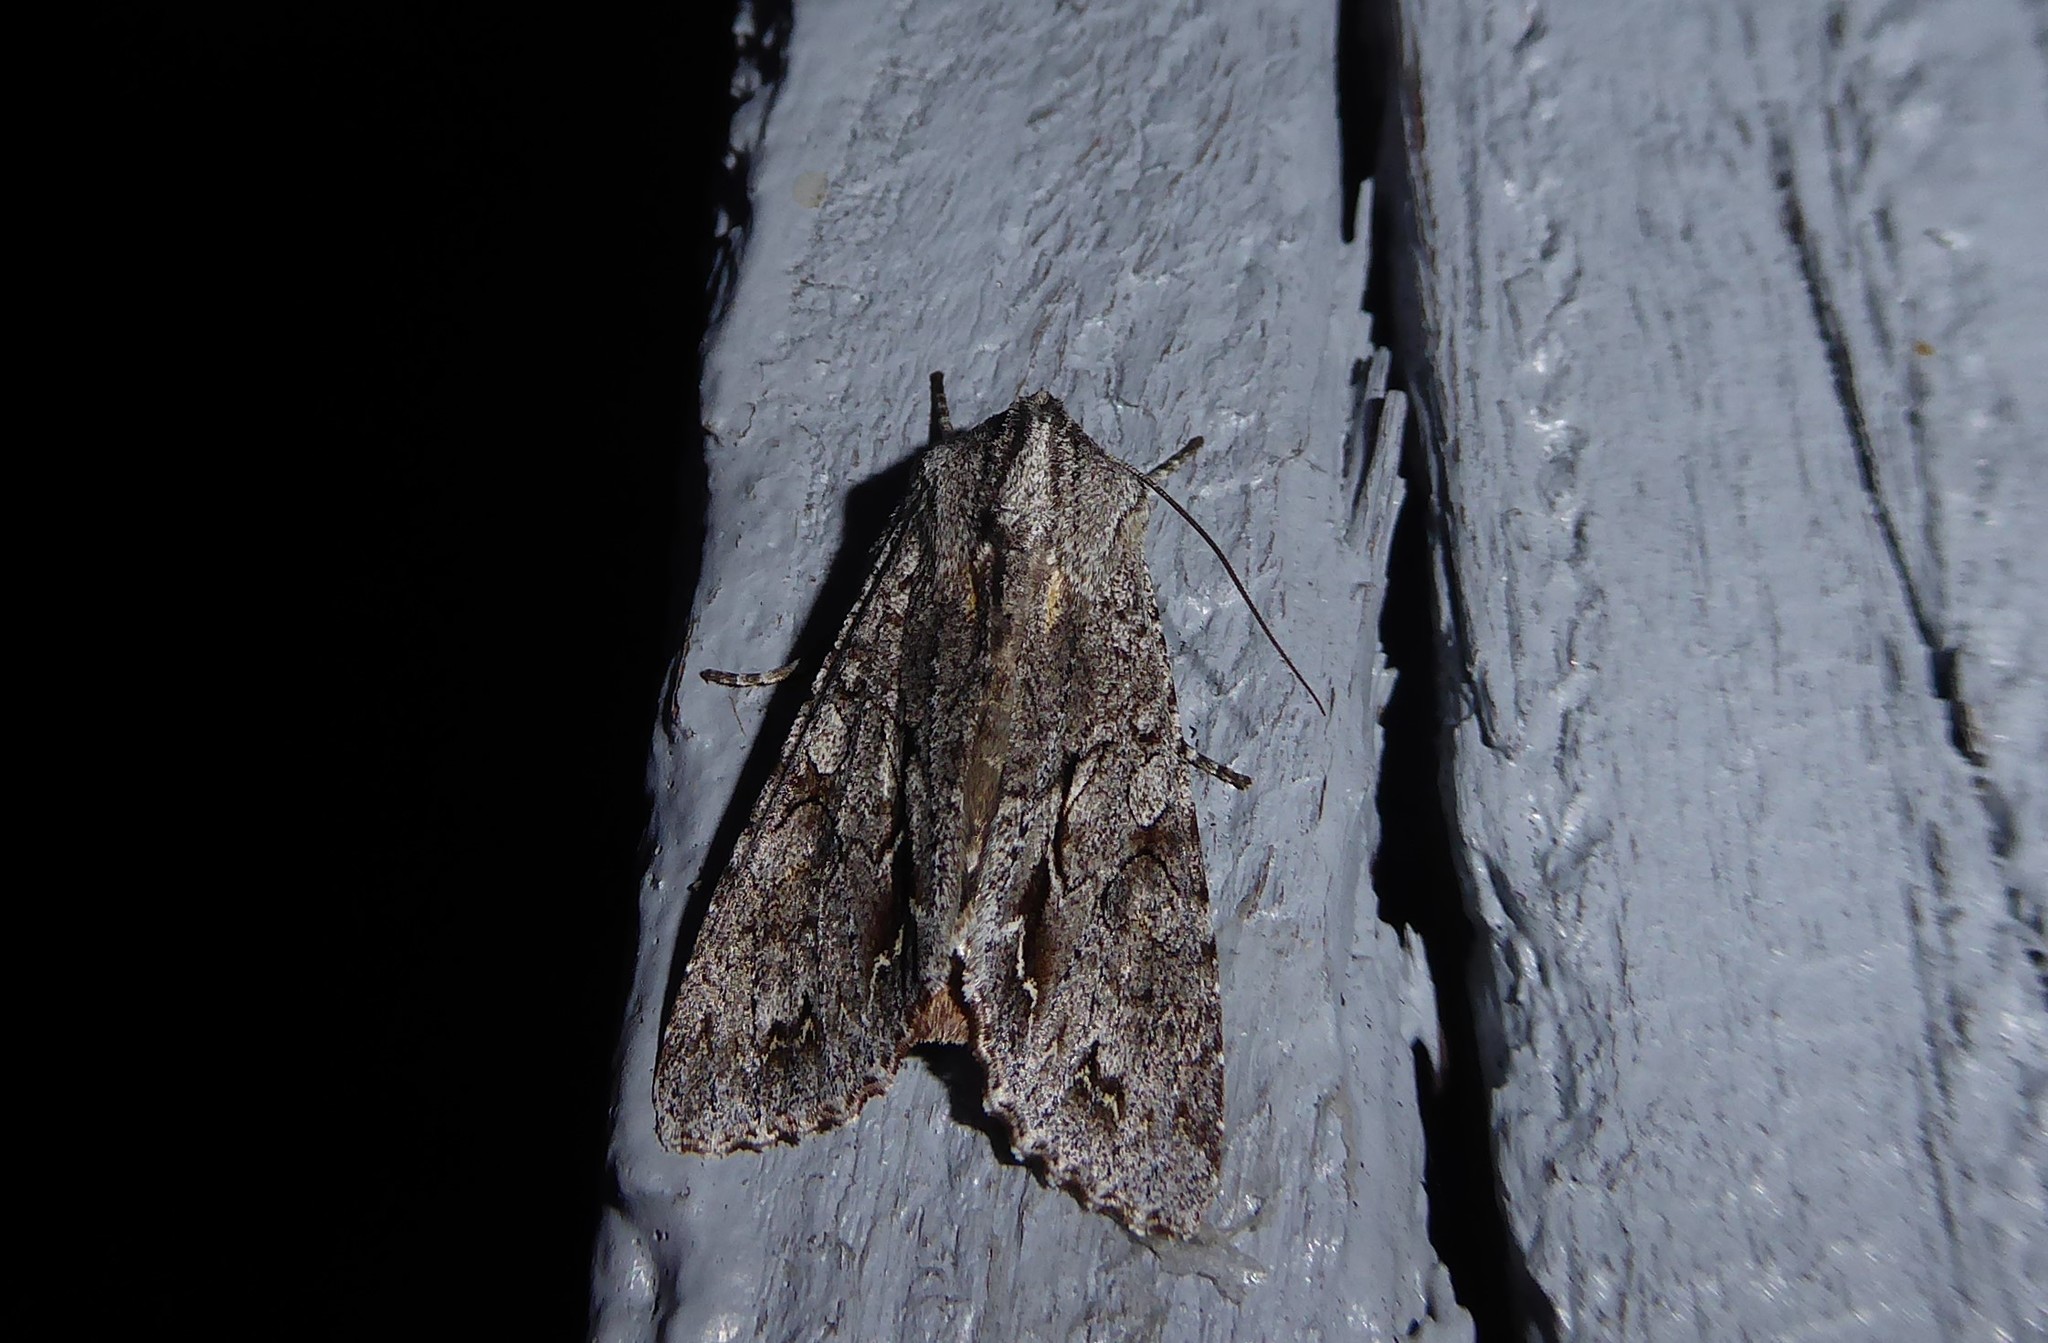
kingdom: Animalia
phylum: Arthropoda
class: Insecta
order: Lepidoptera
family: Noctuidae
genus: Ichneutica
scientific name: Ichneutica
